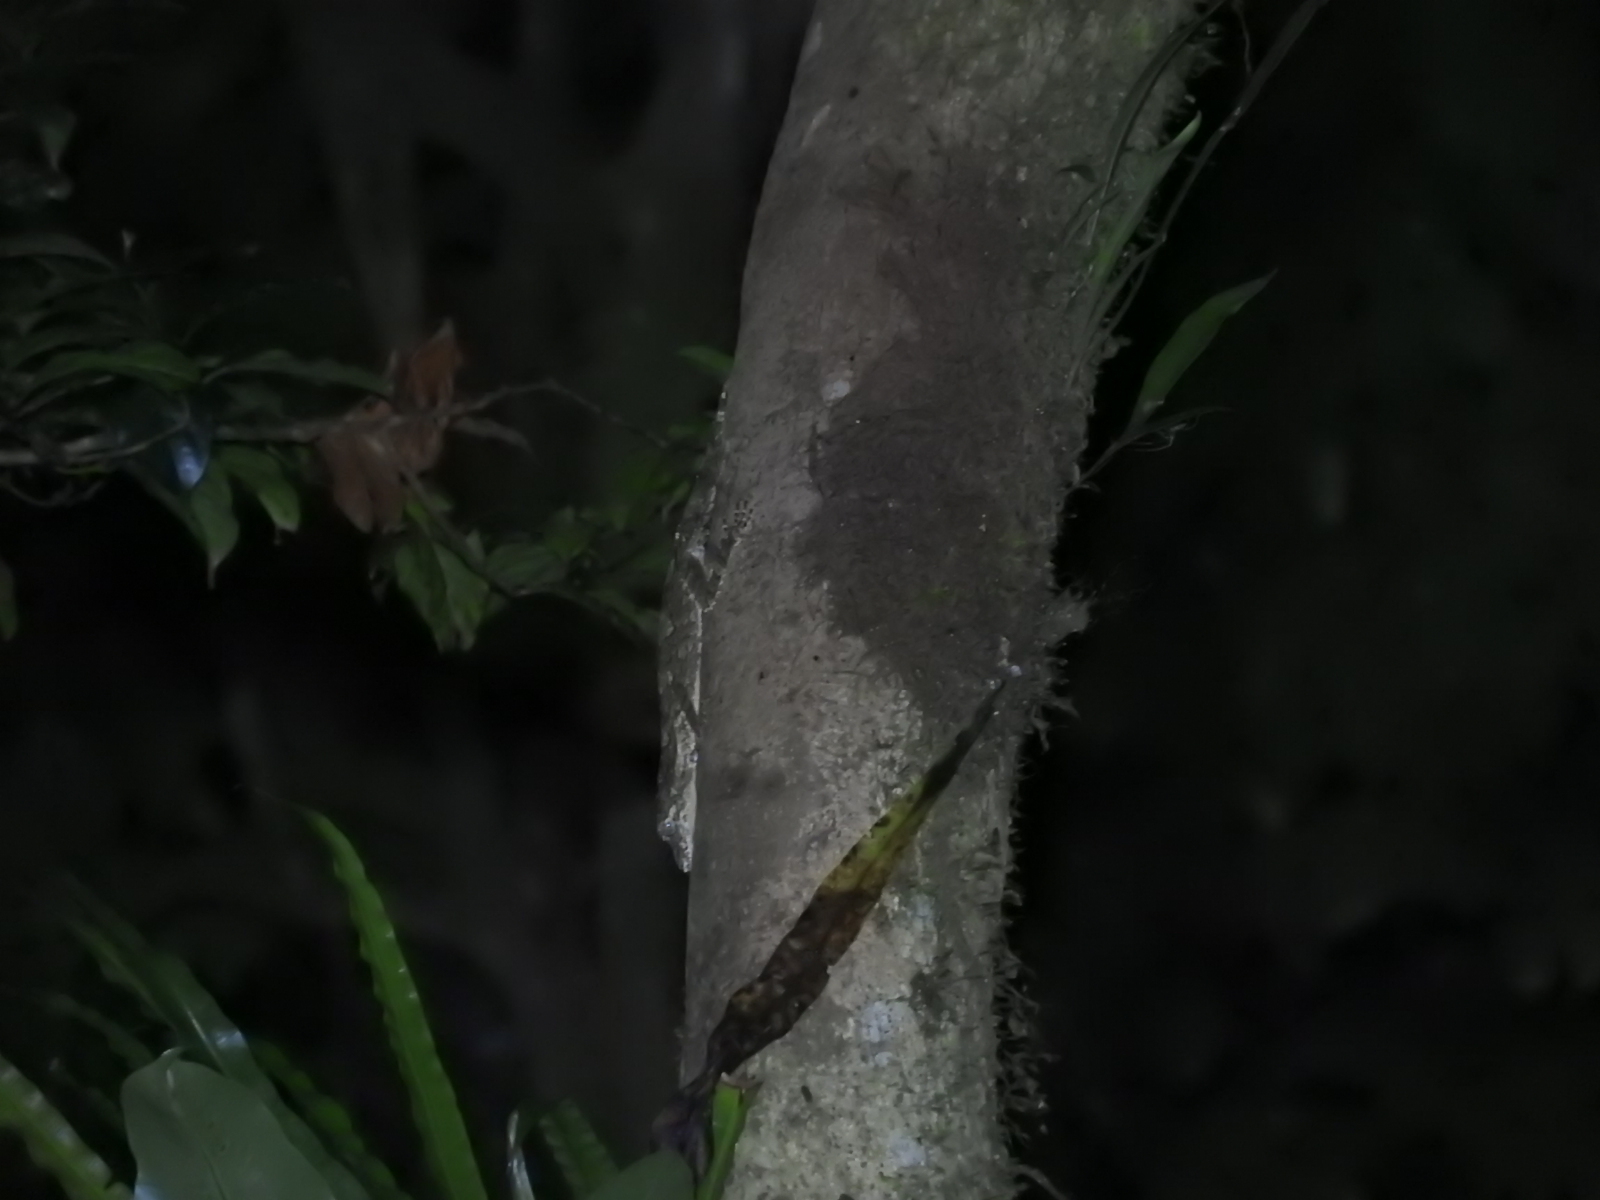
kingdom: Animalia
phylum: Chordata
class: Squamata
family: Carphodactylidae
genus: Saltuarius
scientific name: Saltuarius cornutus
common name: Leaf-tailed gecko
